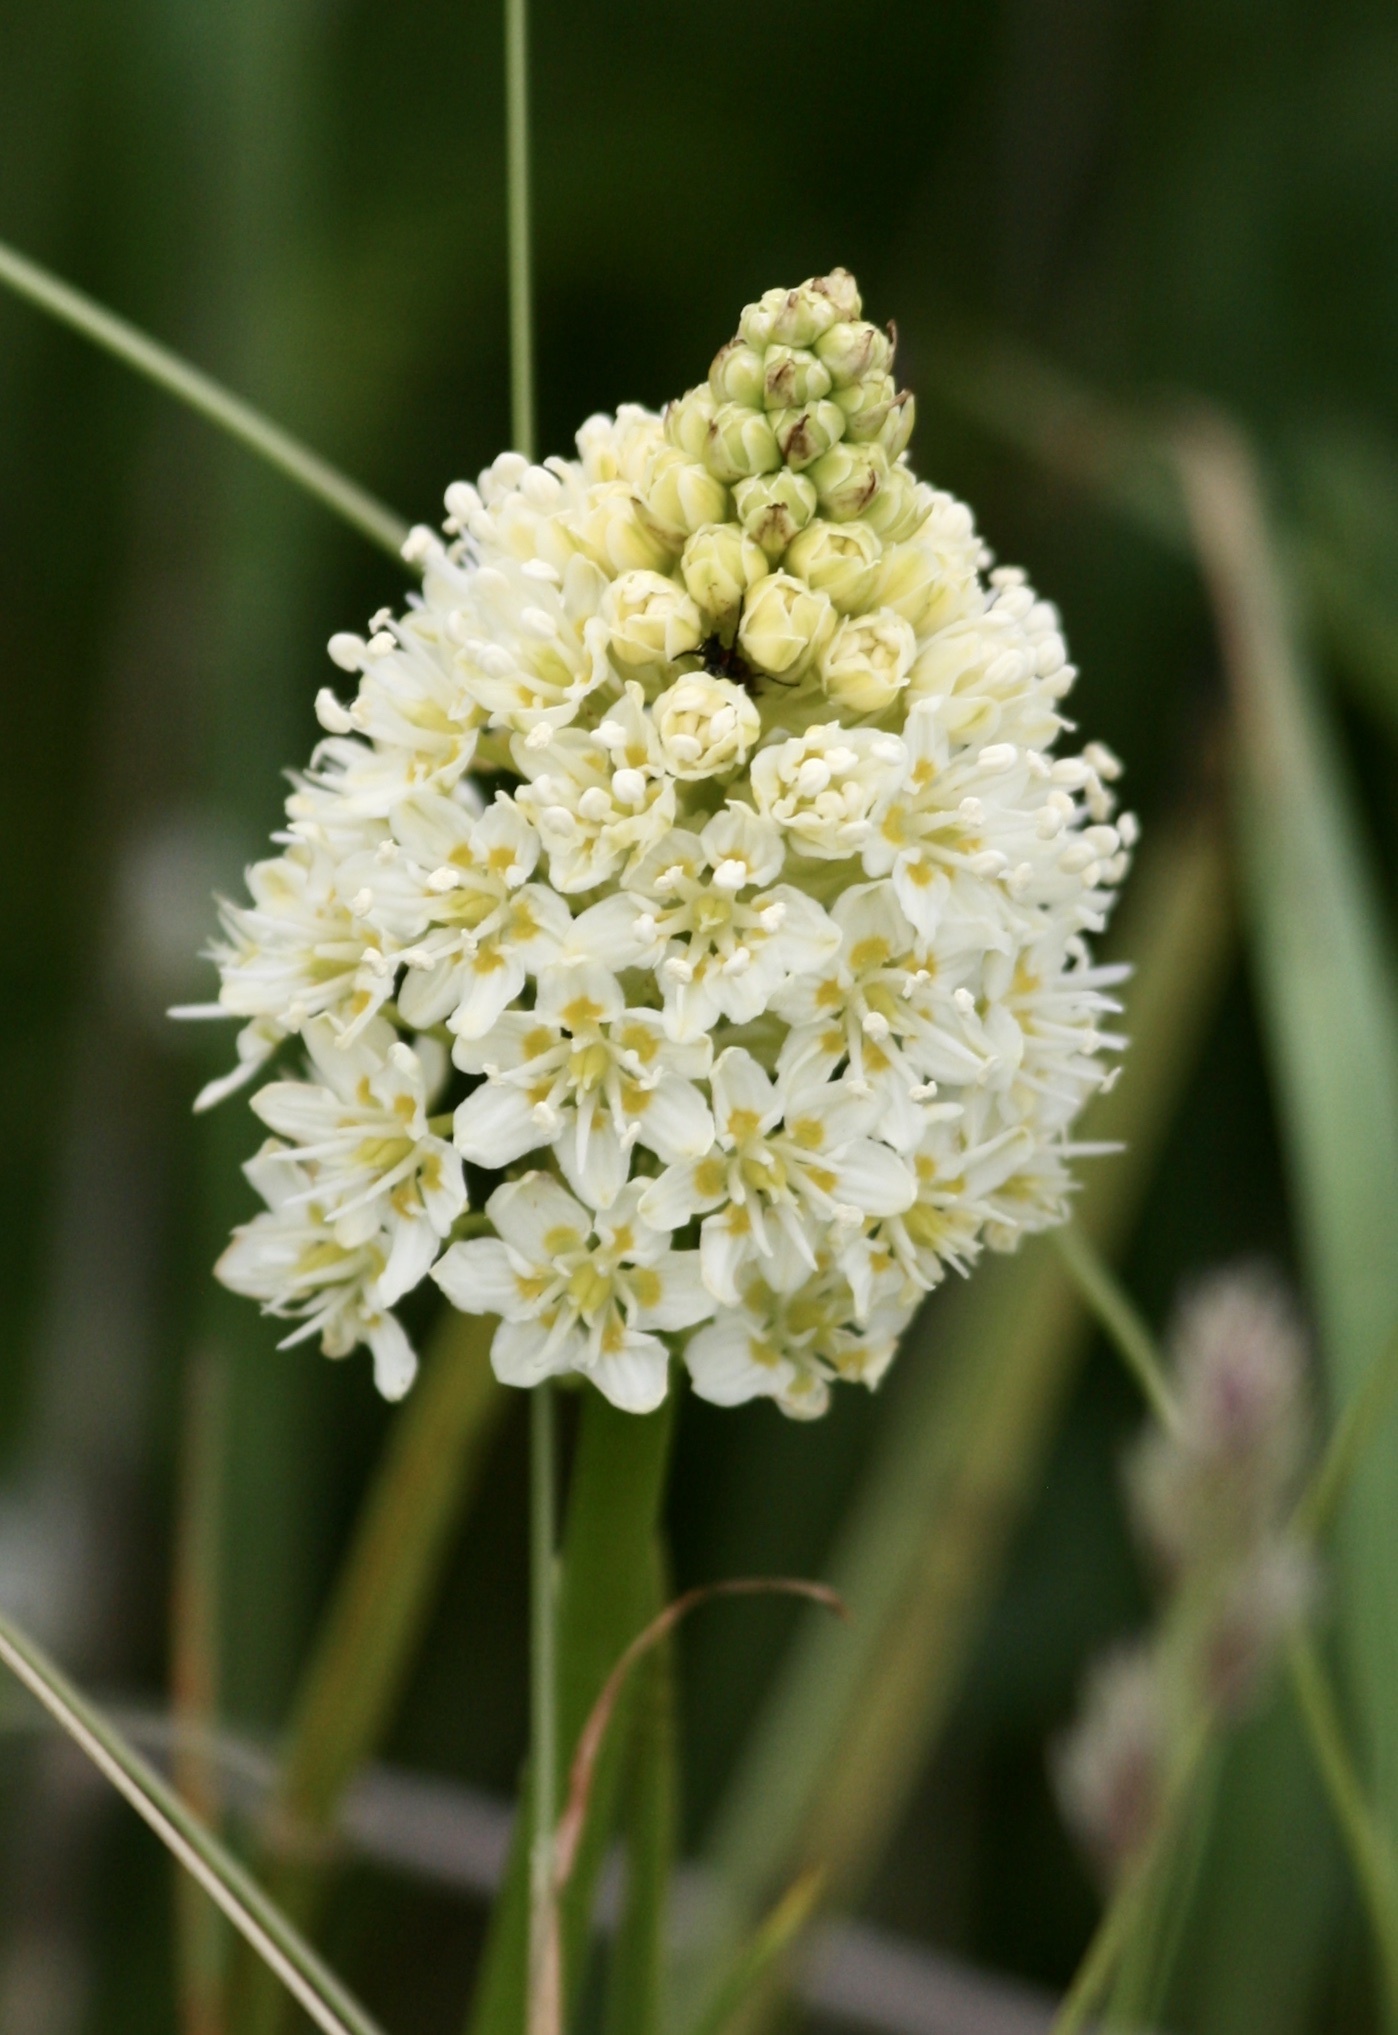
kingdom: Plantae
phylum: Tracheophyta
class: Liliopsida
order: Liliales
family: Melanthiaceae
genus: Toxicoscordion
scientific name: Toxicoscordion venenosum
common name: Meadow death camas
